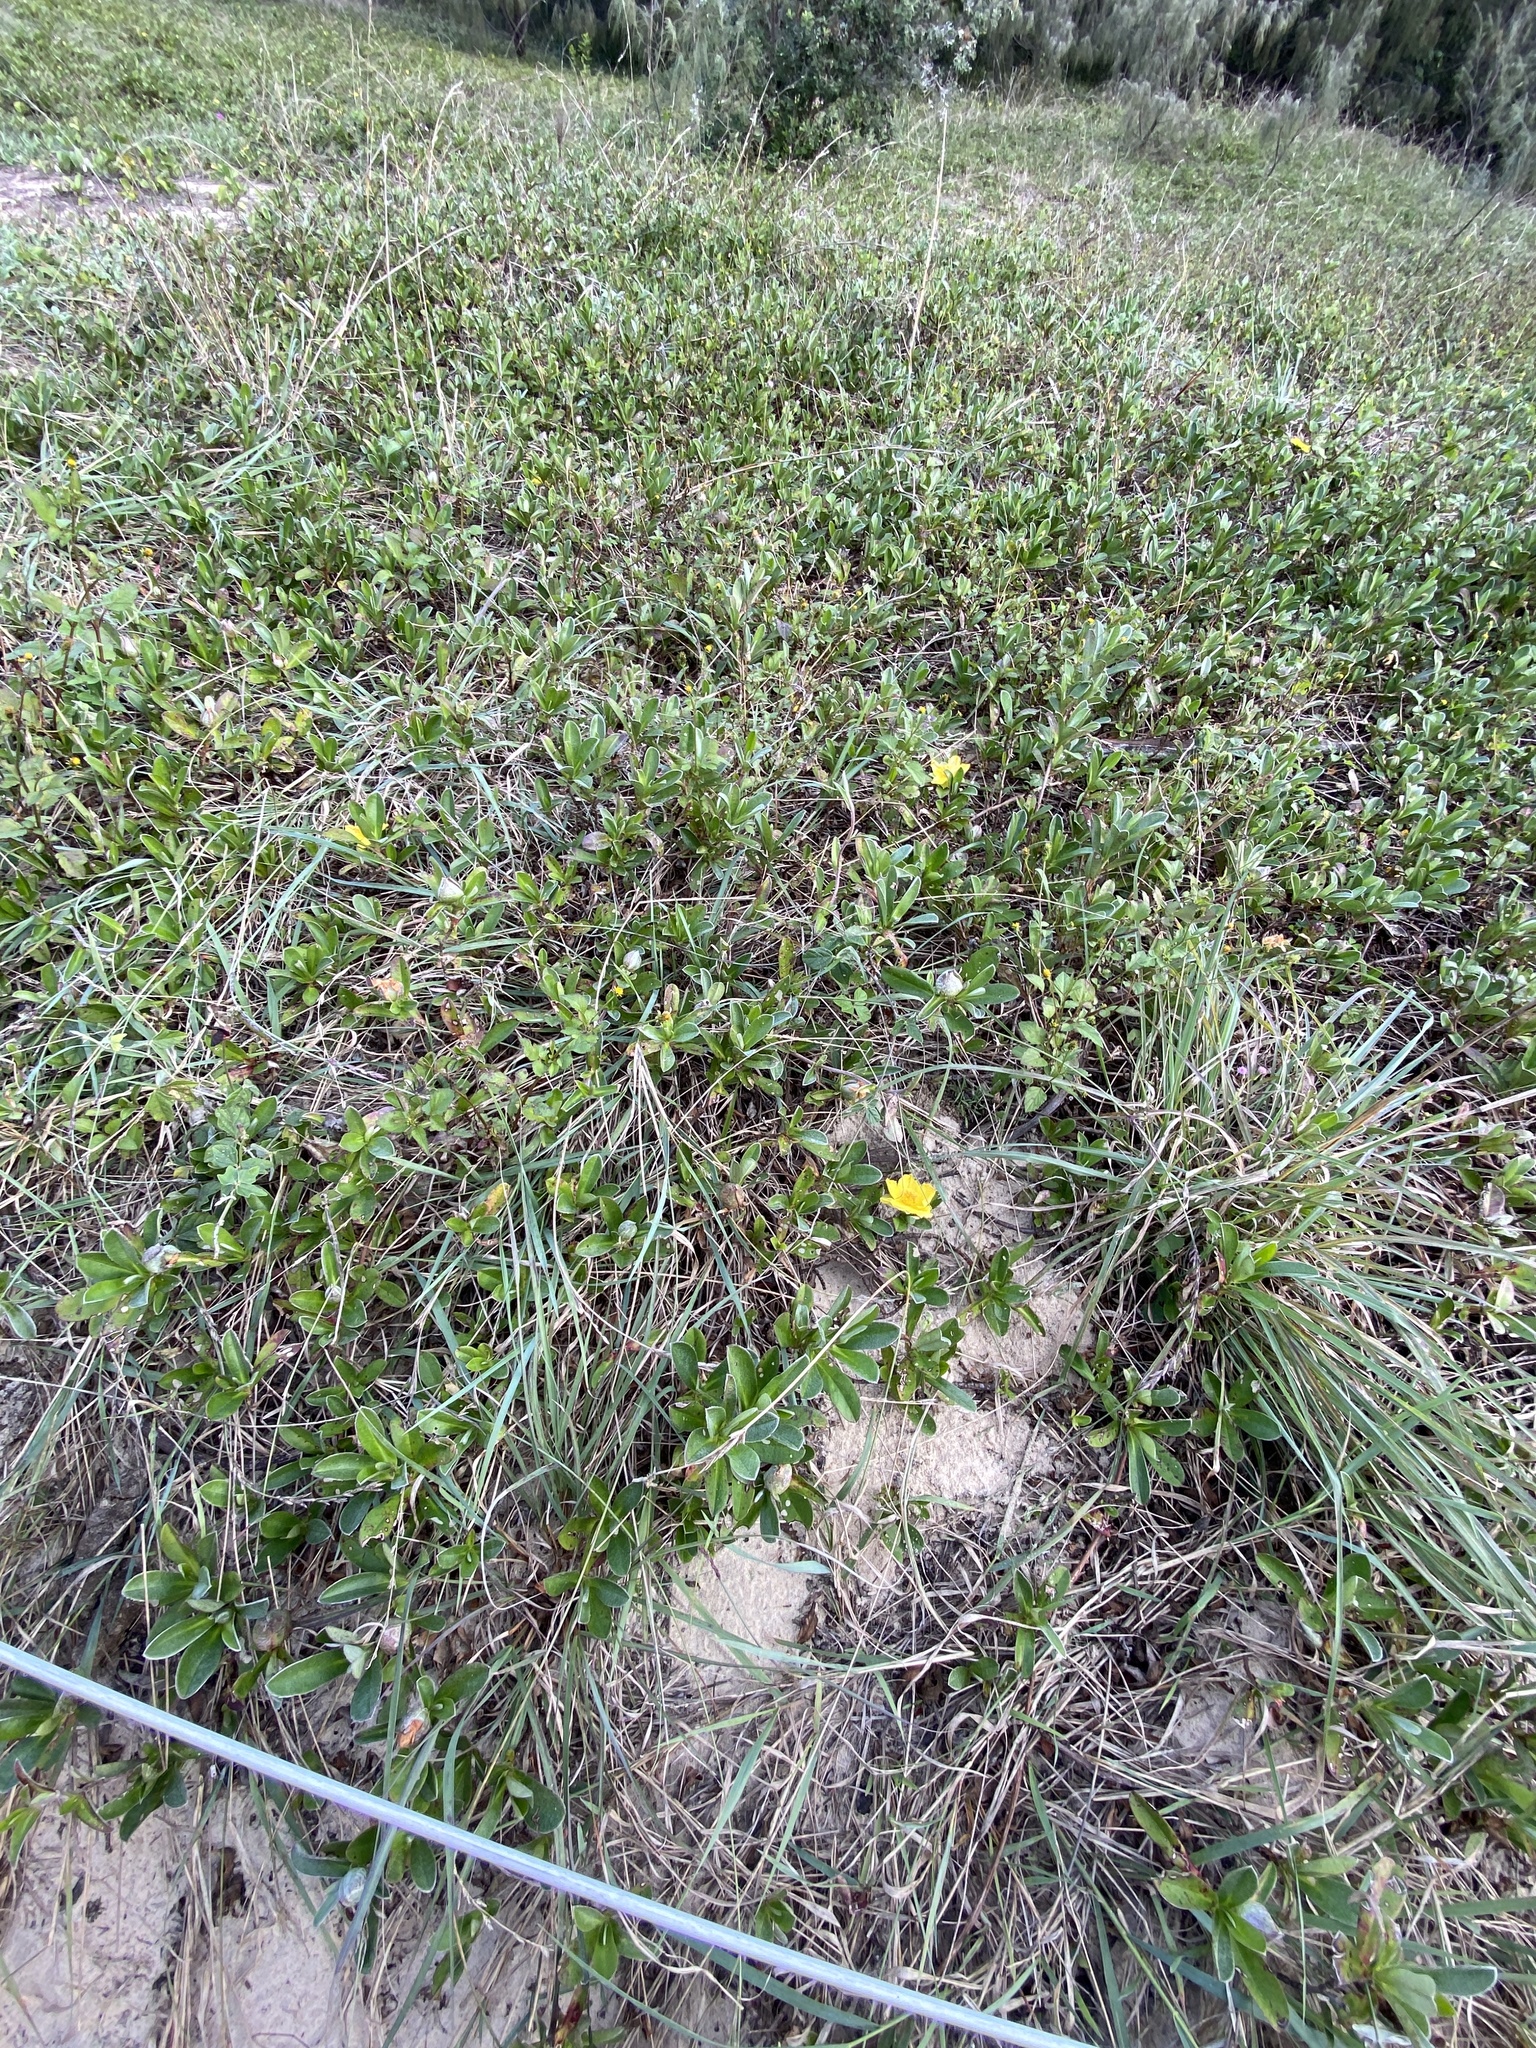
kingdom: Plantae
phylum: Tracheophyta
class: Magnoliopsida
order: Dilleniales
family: Dilleniaceae
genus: Hibbertia
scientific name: Hibbertia scandens
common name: Climbing guinea-flower
